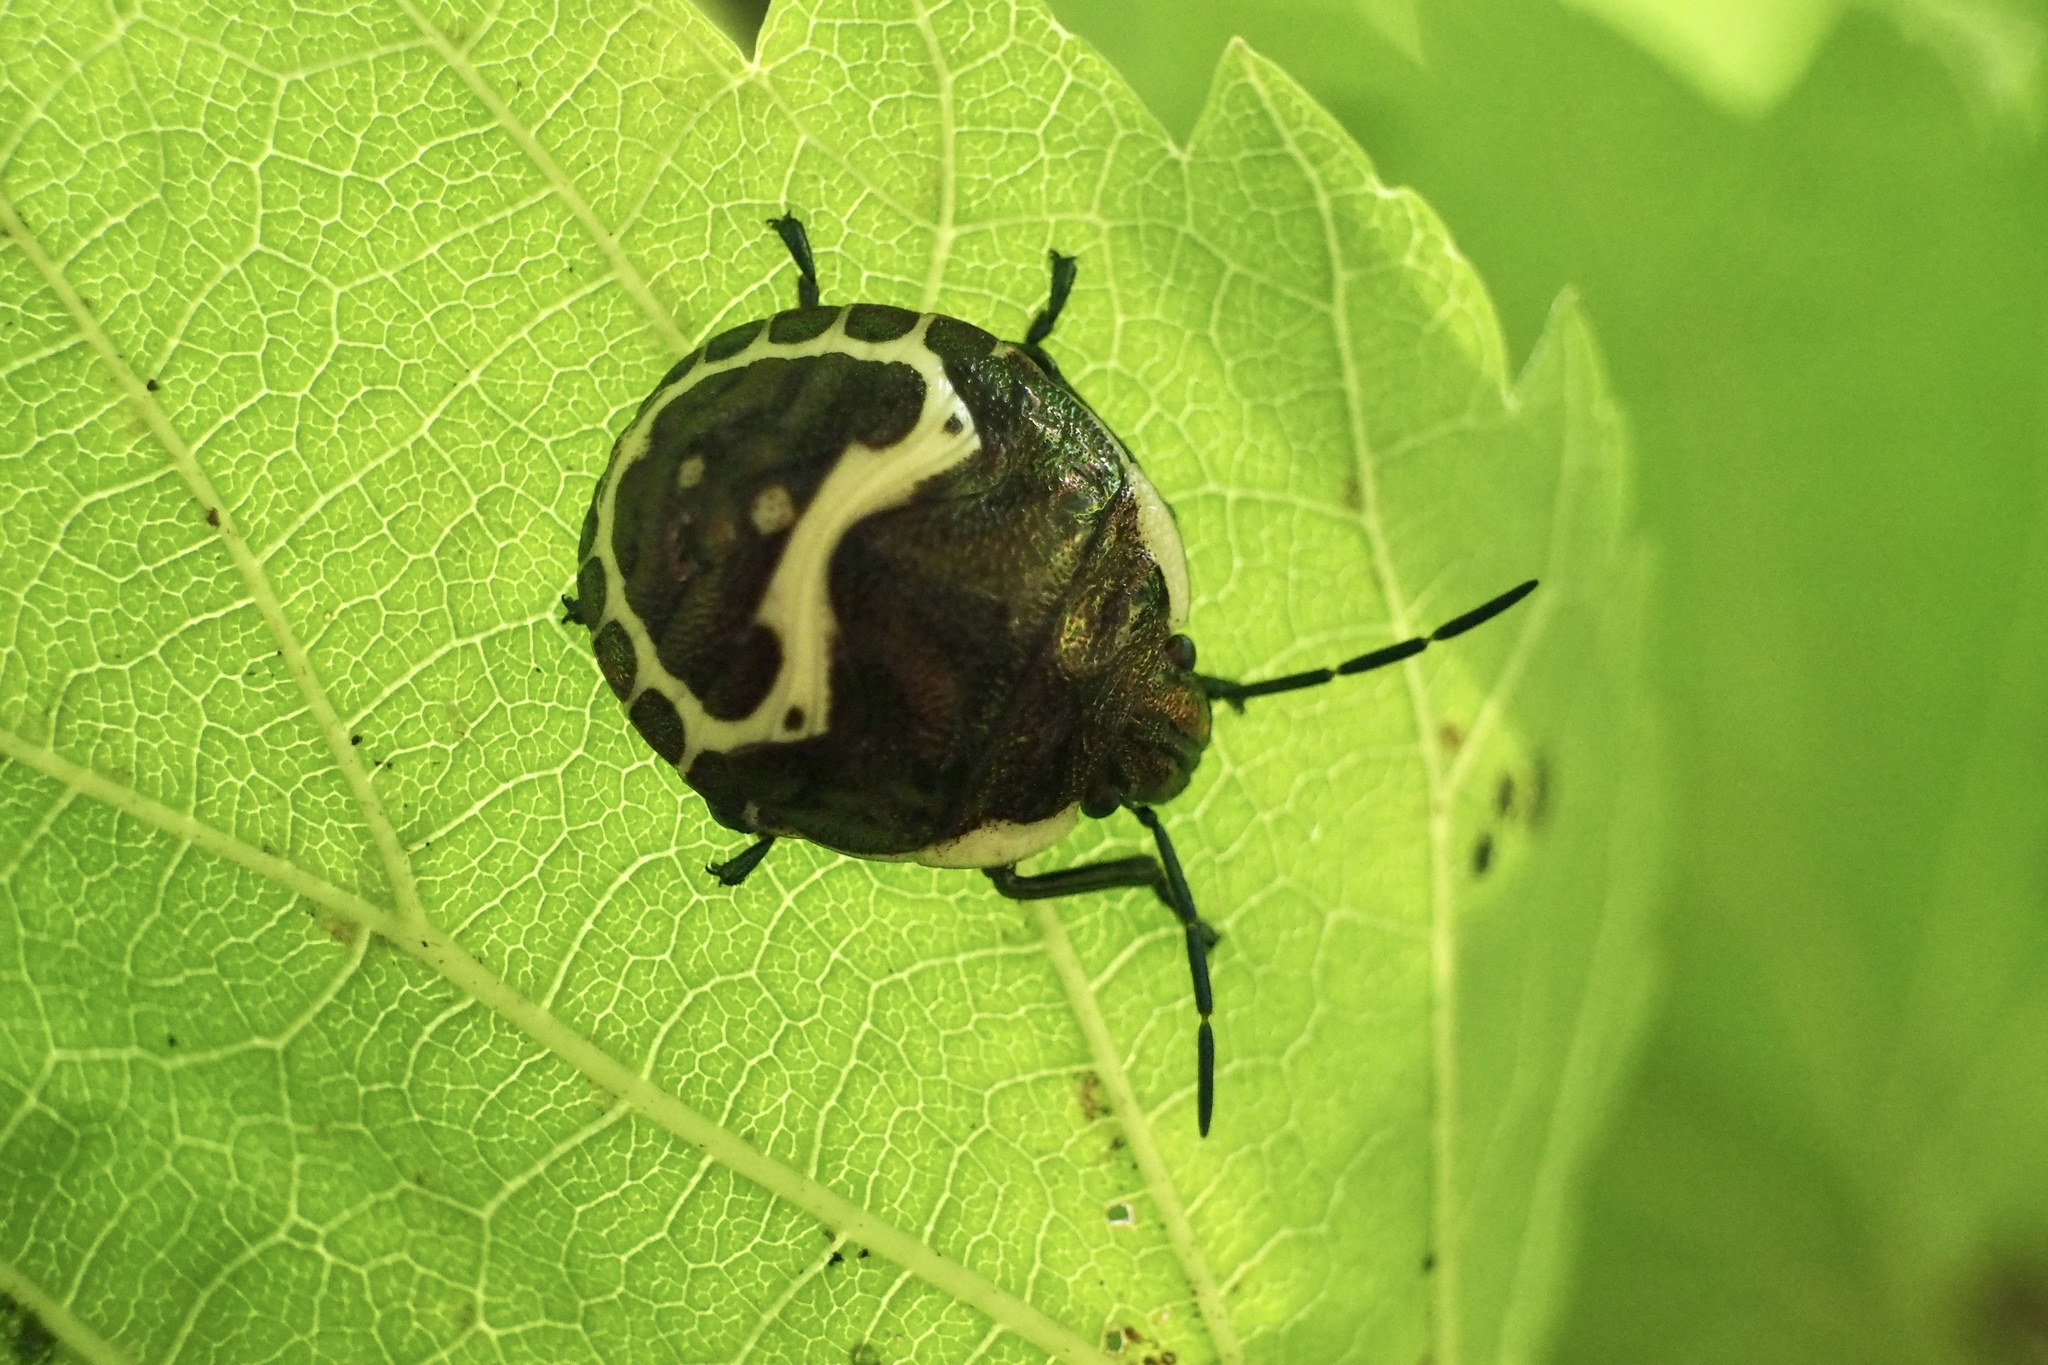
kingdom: Animalia
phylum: Arthropoda
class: Insecta
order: Hemiptera
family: Scutelleridae
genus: Poecilocoris
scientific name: Poecilocoris lewisi
